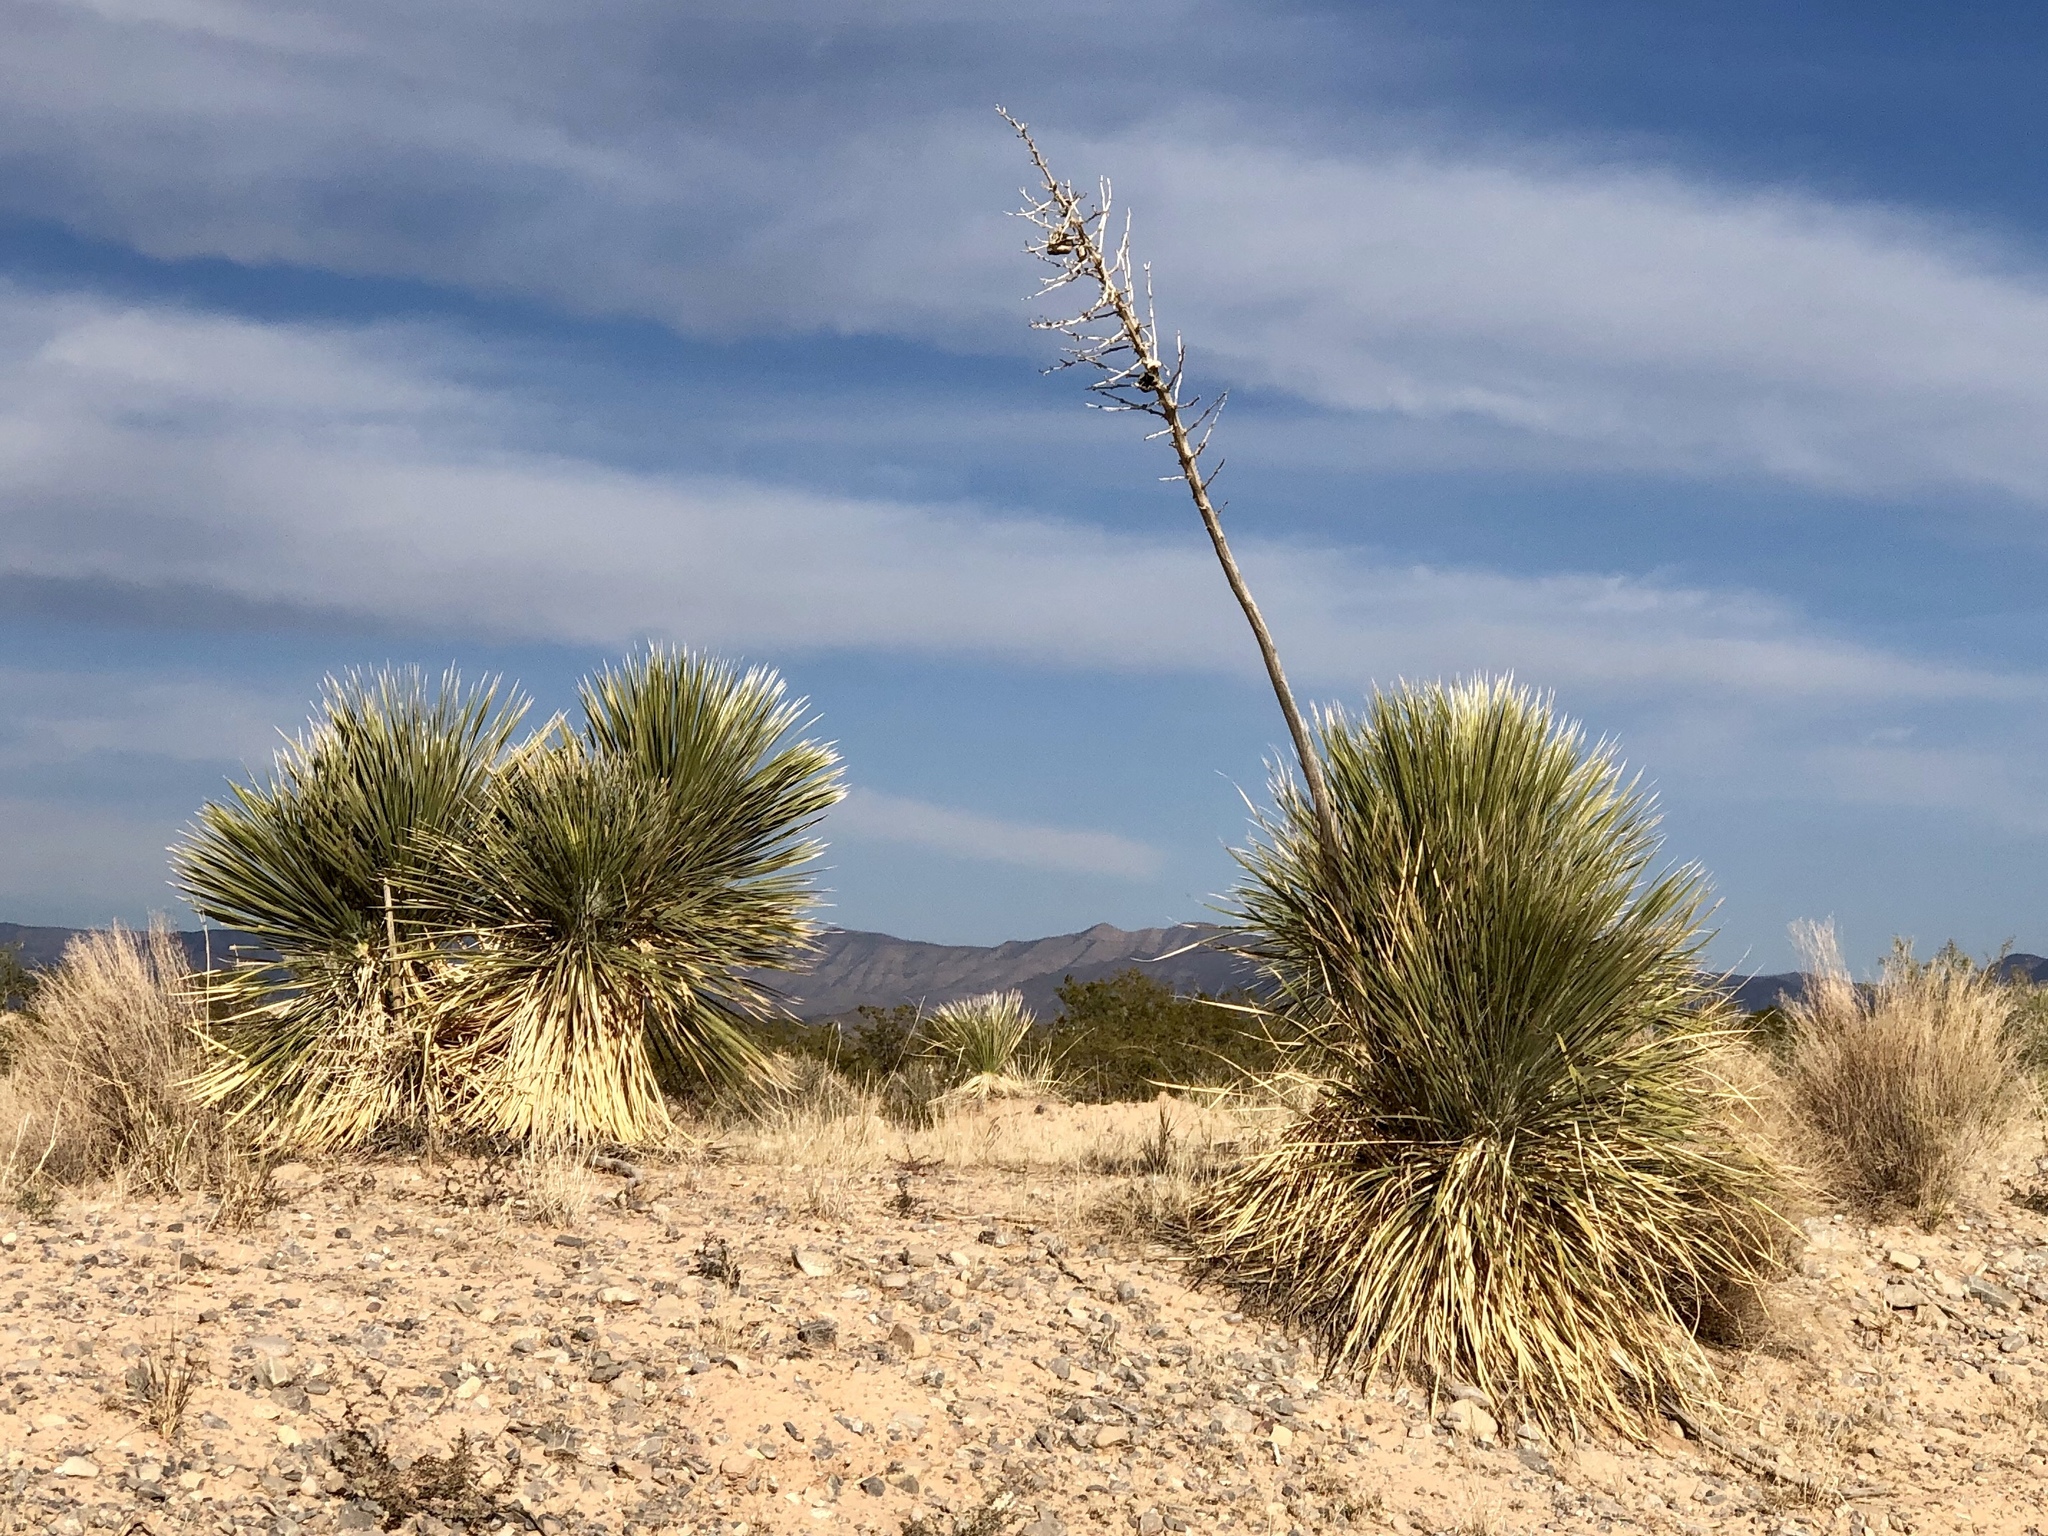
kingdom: Plantae
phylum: Tracheophyta
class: Liliopsida
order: Asparagales
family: Asparagaceae
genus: Yucca
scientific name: Yucca elata
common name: Palmella
